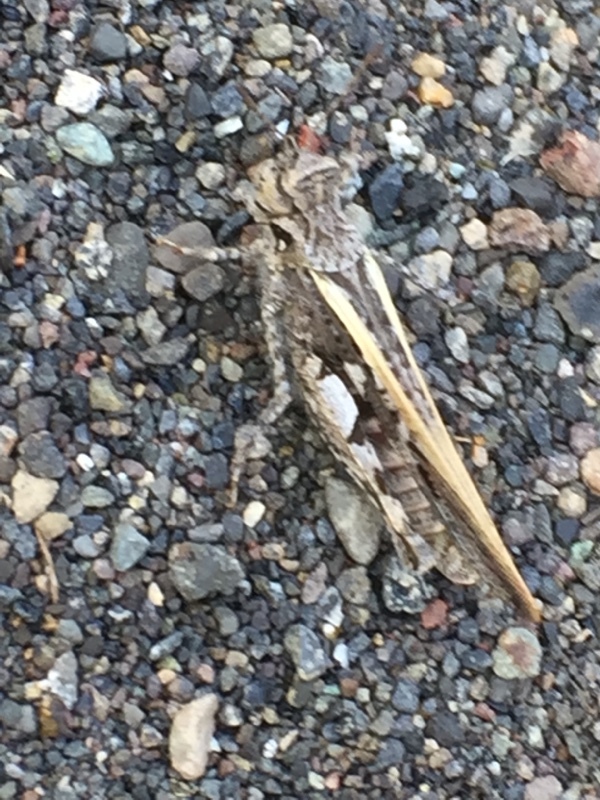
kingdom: Animalia
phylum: Arthropoda
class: Insecta
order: Orthoptera
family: Acrididae
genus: Acrotylus
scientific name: Acrotylus insubricus
